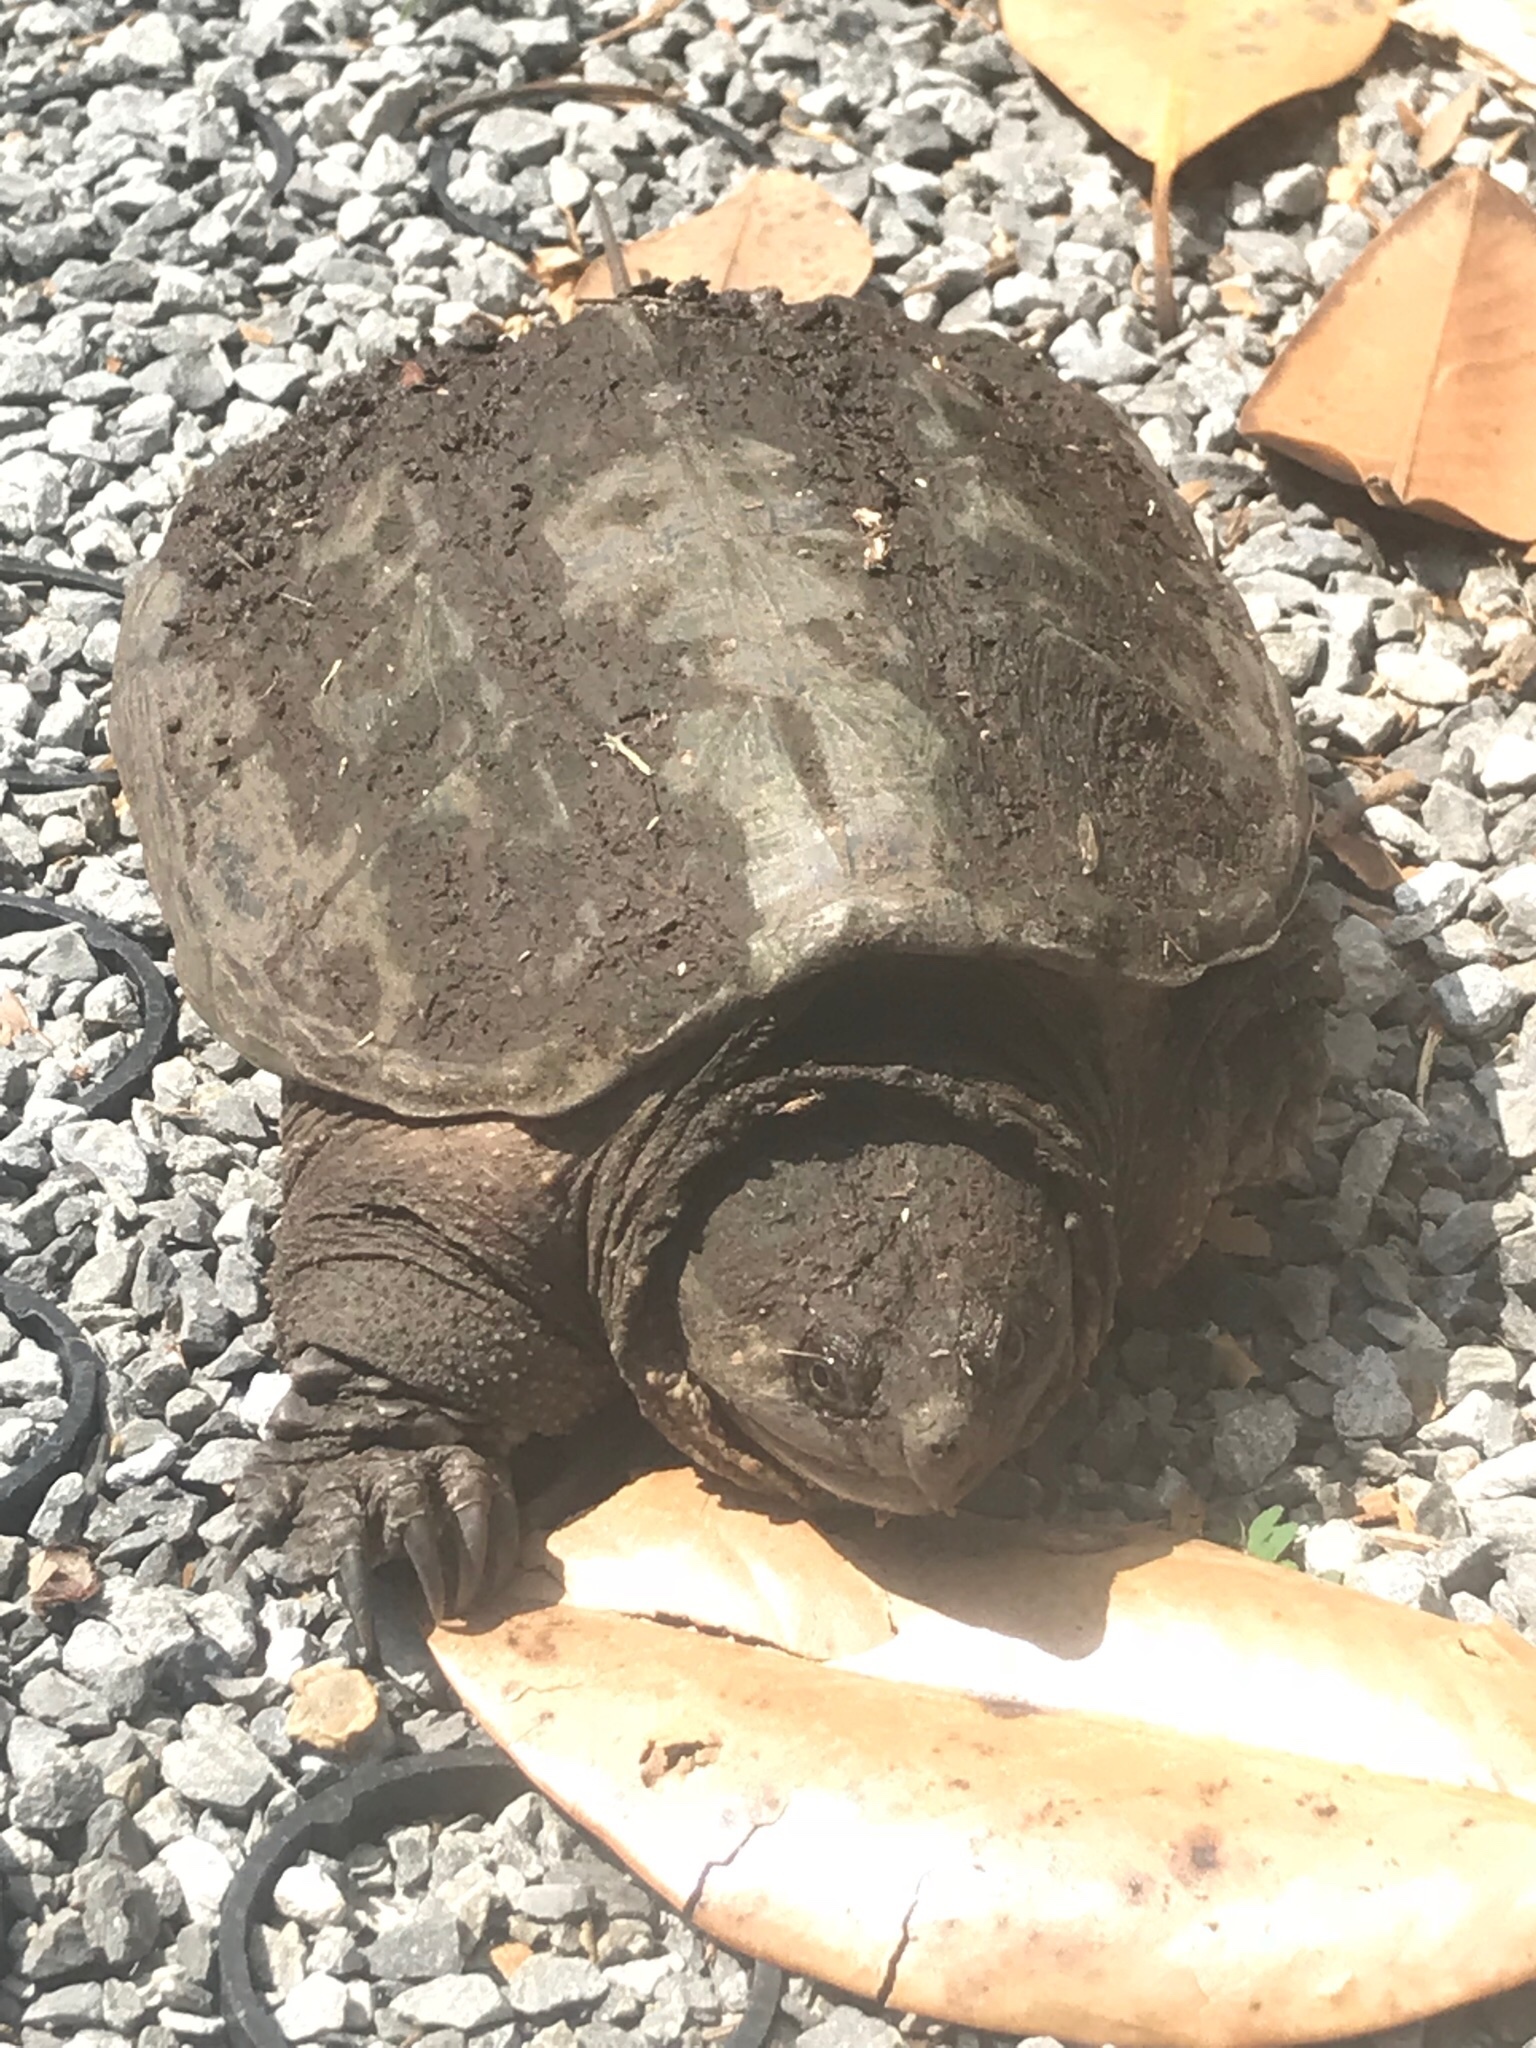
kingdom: Animalia
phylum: Chordata
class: Testudines
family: Chelydridae
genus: Chelydra
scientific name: Chelydra serpentina
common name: Common snapping turtle
